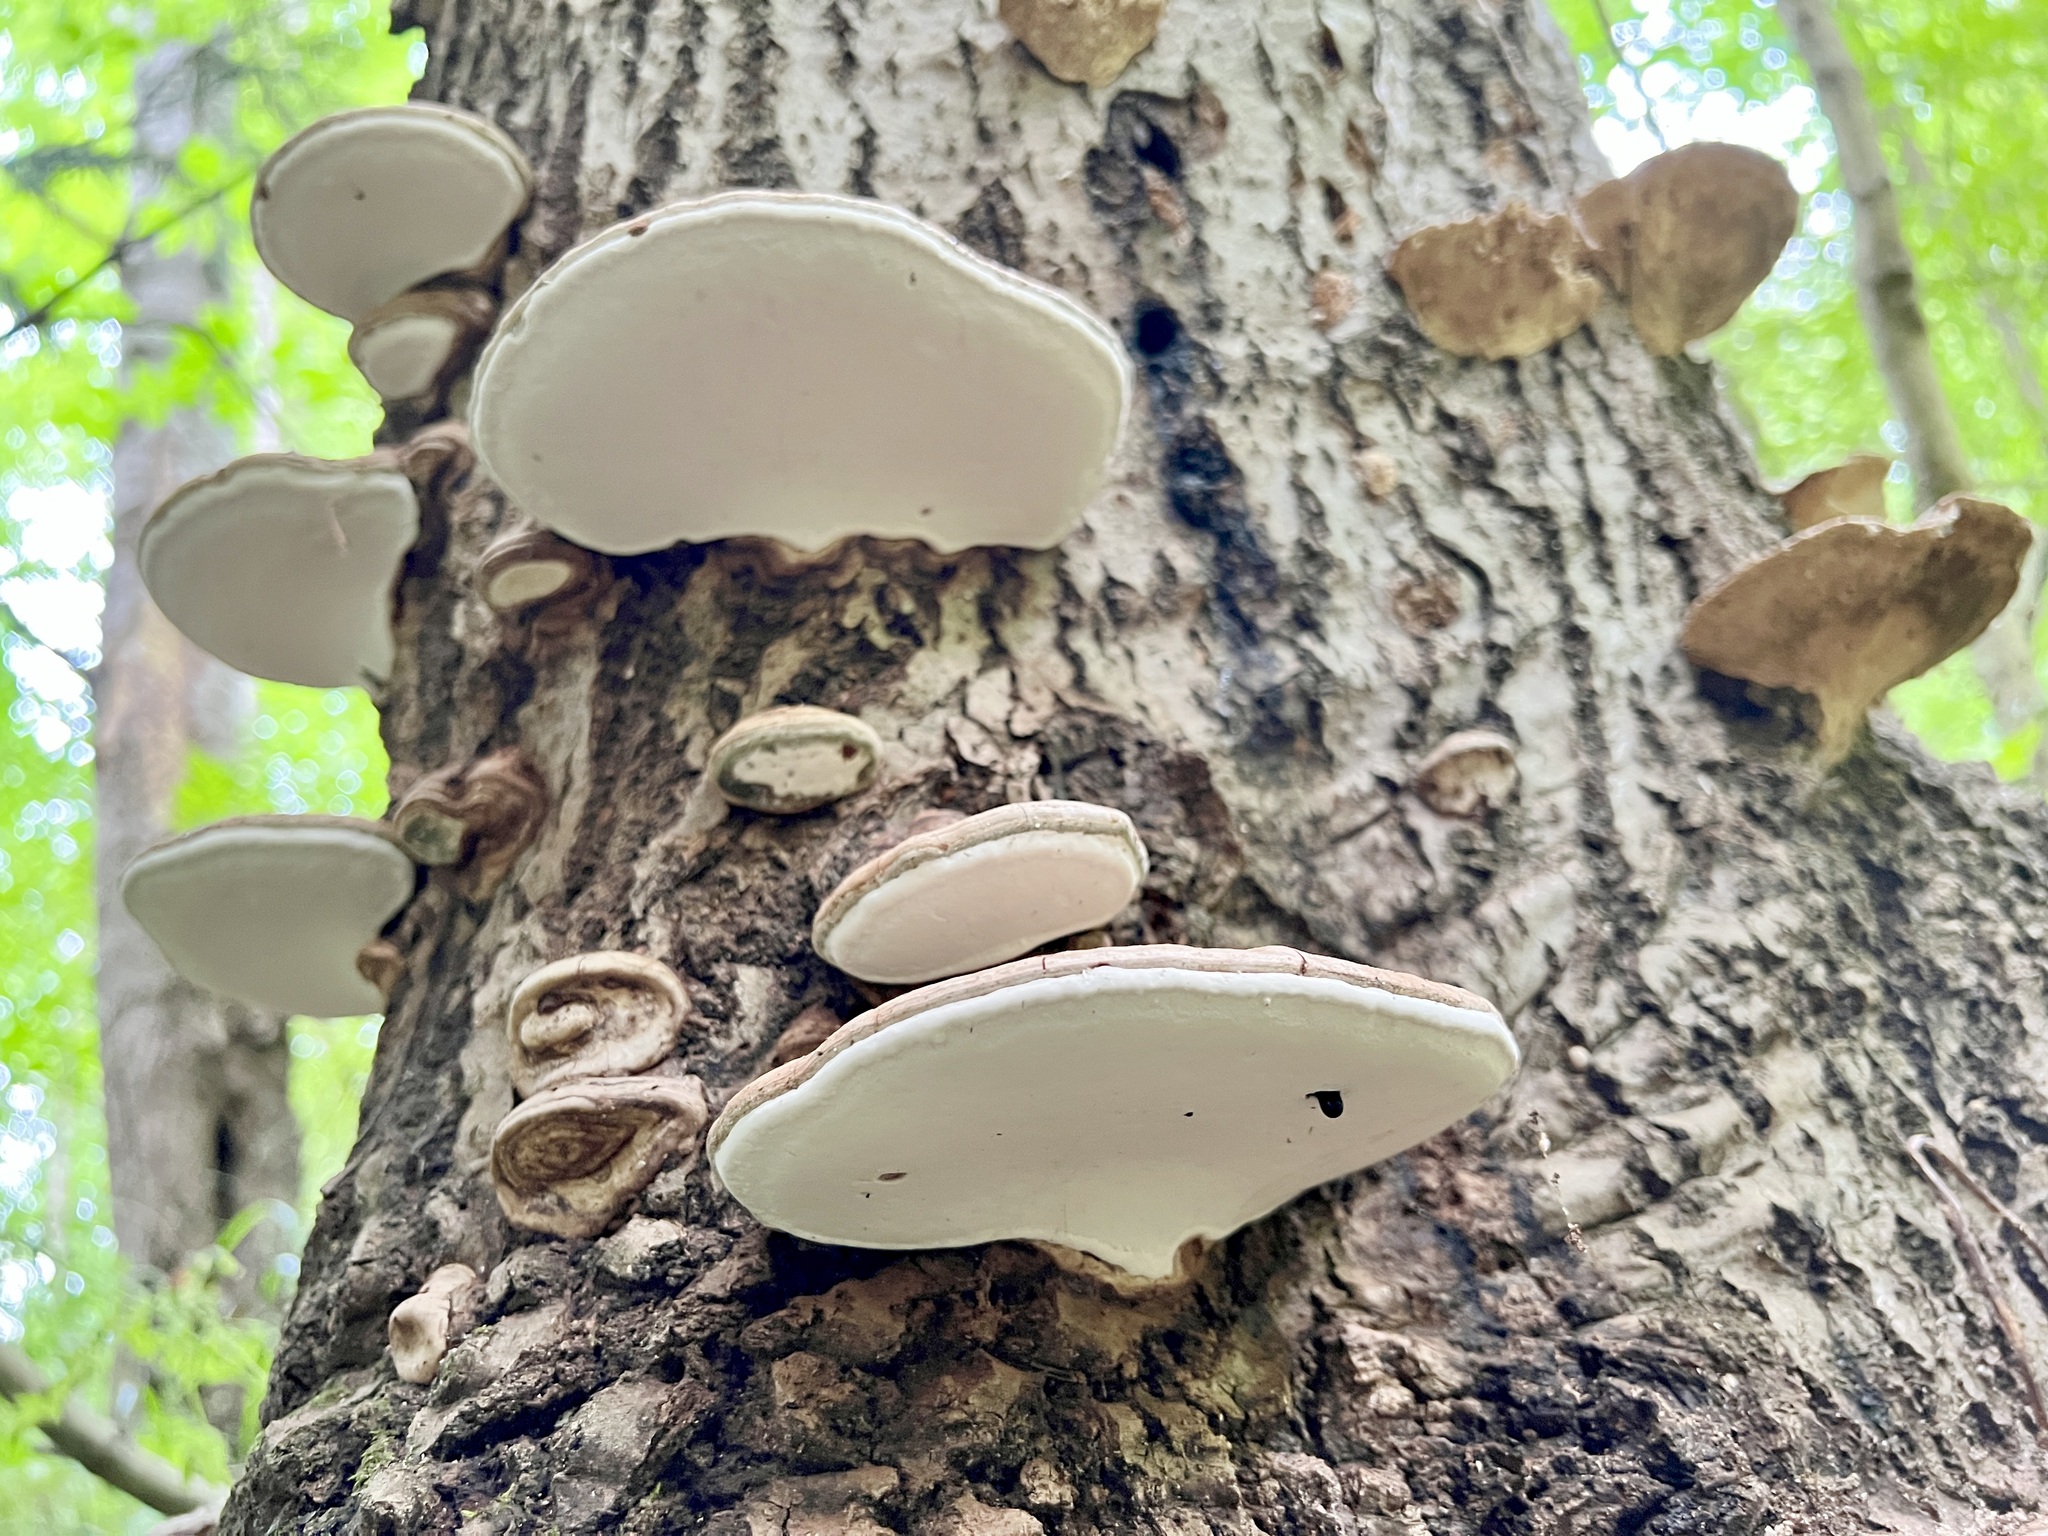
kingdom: Fungi
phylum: Basidiomycota
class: Agaricomycetes
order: Polyporales
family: Polyporaceae
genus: Ganoderma
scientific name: Ganoderma applanatum
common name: Artist's bracket
